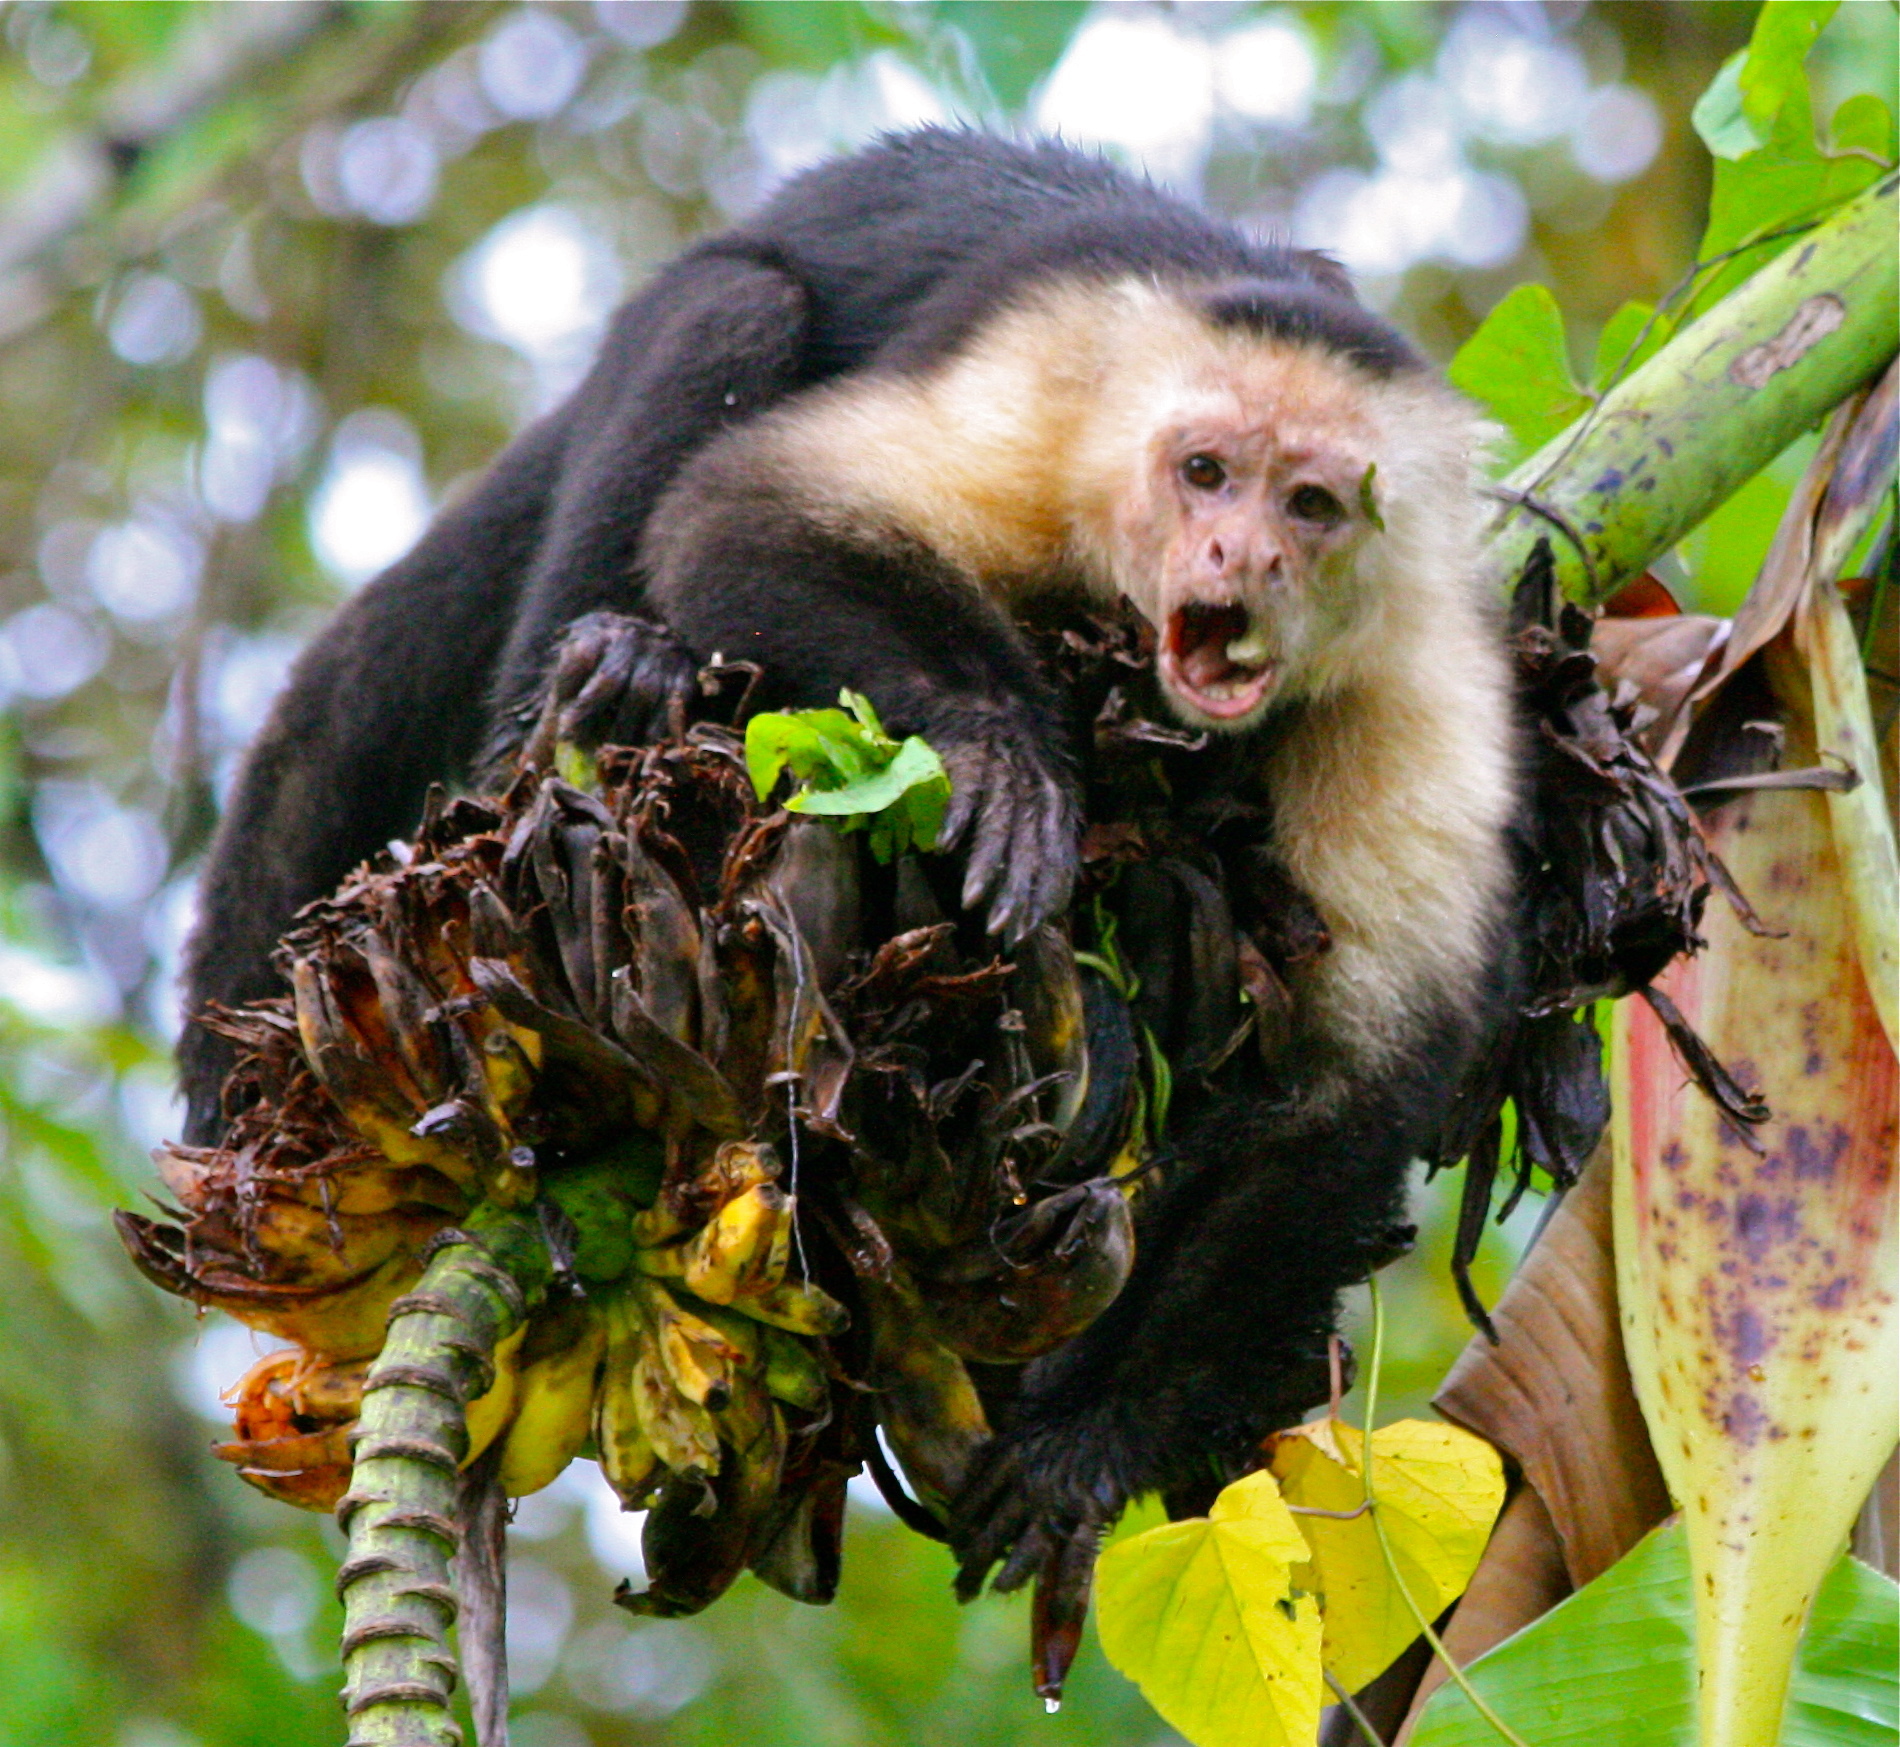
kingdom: Animalia
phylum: Chordata
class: Mammalia
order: Primates
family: Cebidae
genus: Cebus
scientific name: Cebus imitator
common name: Panamanian white-faced capuchin
